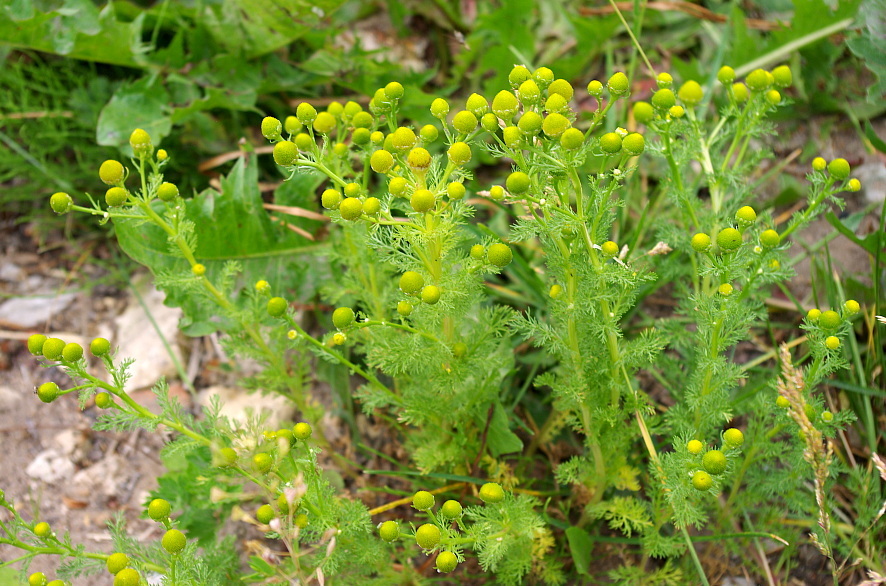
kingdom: Plantae
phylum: Tracheophyta
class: Magnoliopsida
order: Asterales
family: Asteraceae
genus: Matricaria
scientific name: Matricaria discoidea
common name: Disc mayweed
